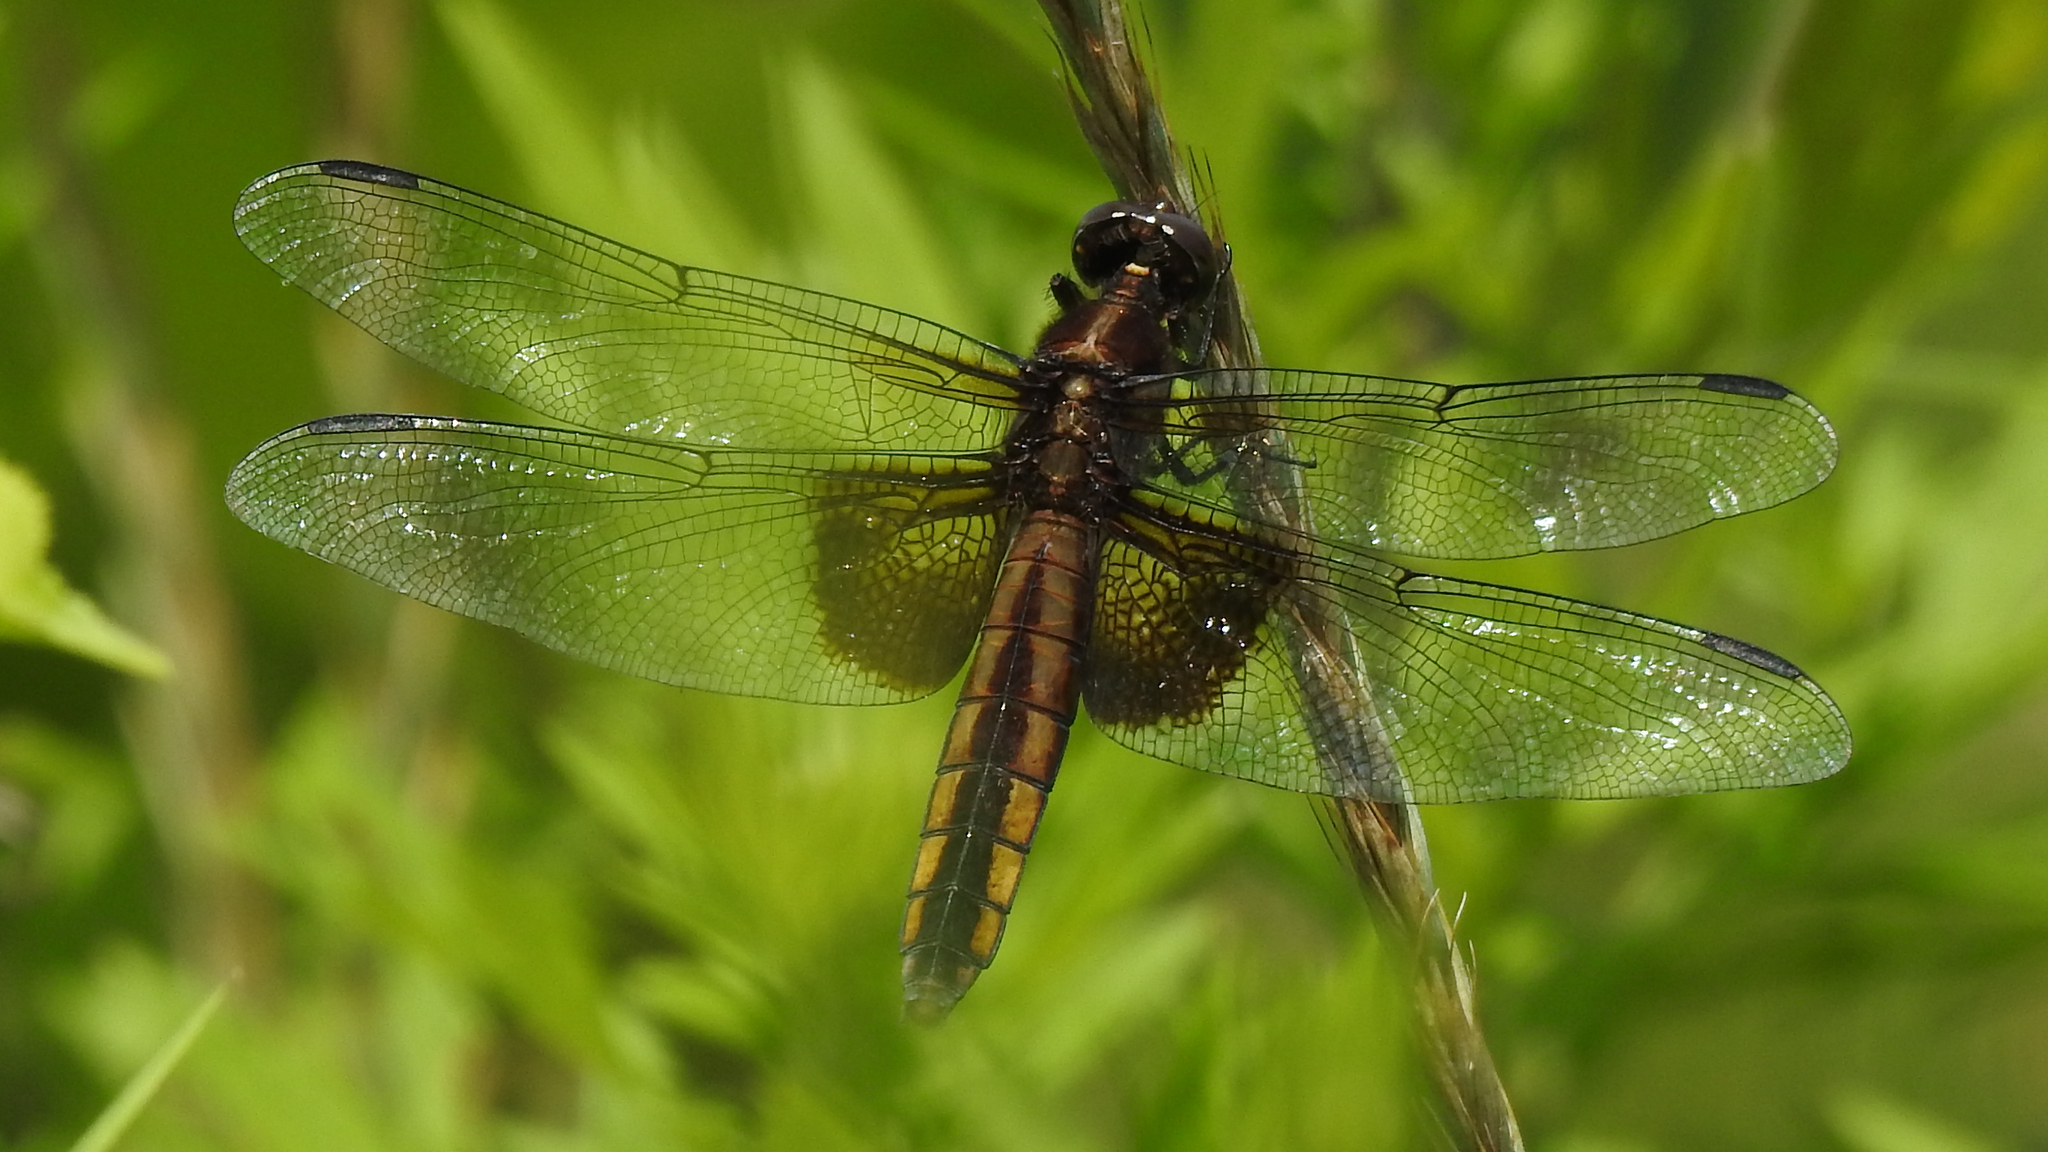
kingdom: Animalia
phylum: Arthropoda
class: Insecta
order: Odonata
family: Libellulidae
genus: Libellula
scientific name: Libellula luctuosa
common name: Widow skimmer
